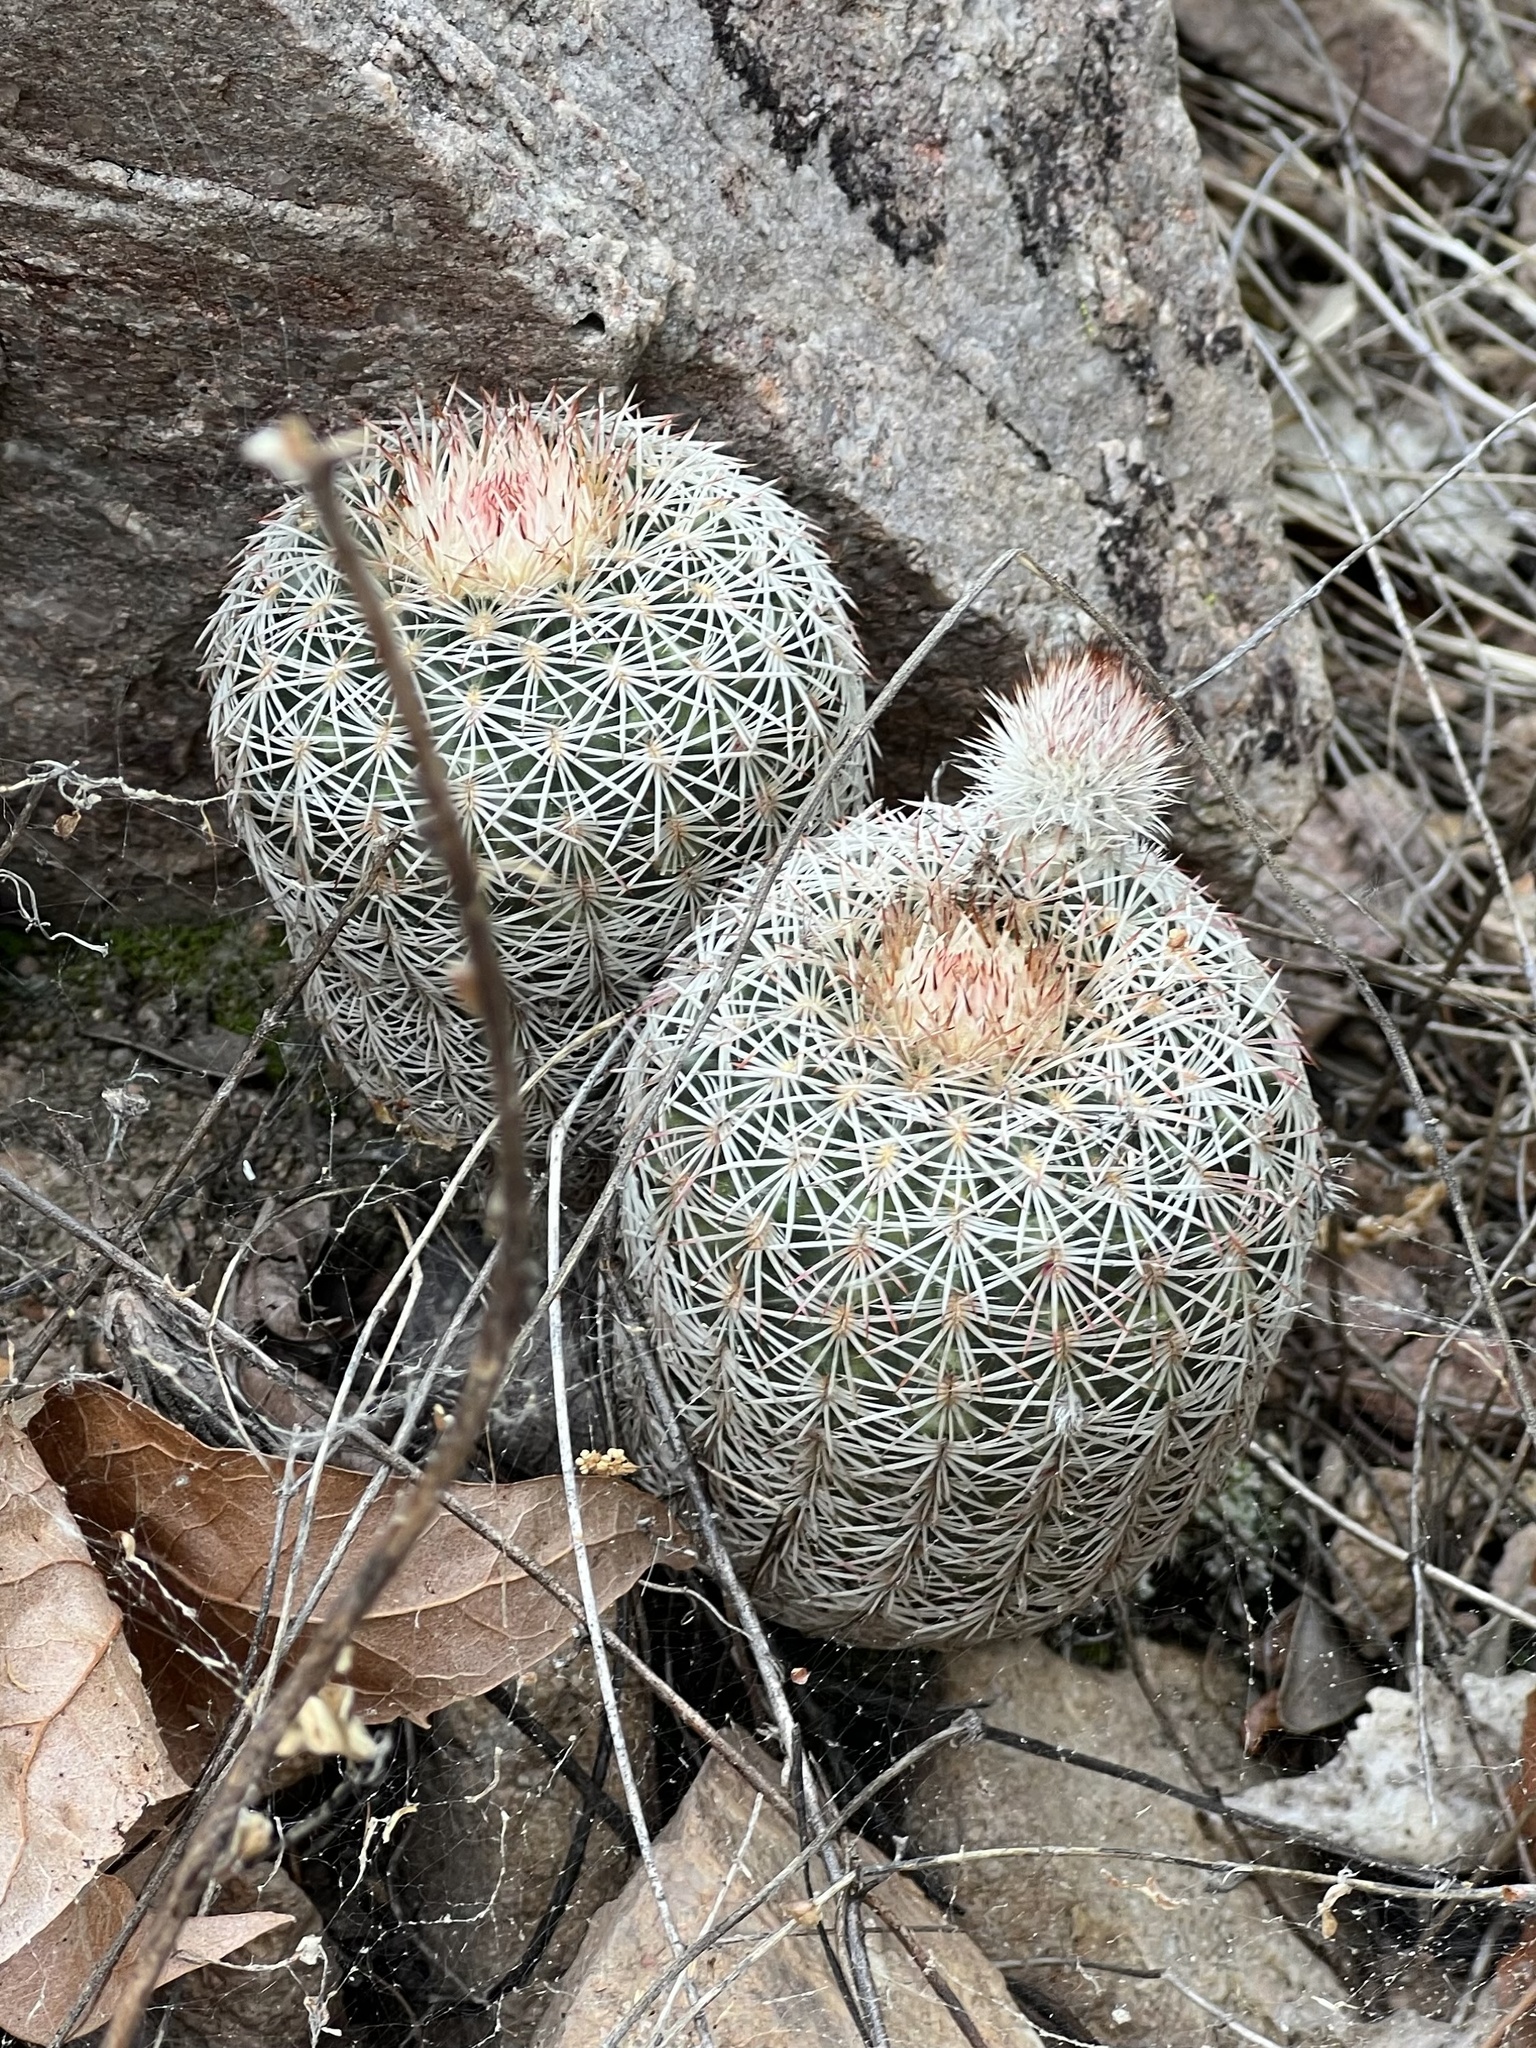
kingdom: Plantae
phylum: Tracheophyta
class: Magnoliopsida
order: Caryophyllales
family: Cactaceae
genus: Echinocereus
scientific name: Echinocereus rigidissimus
